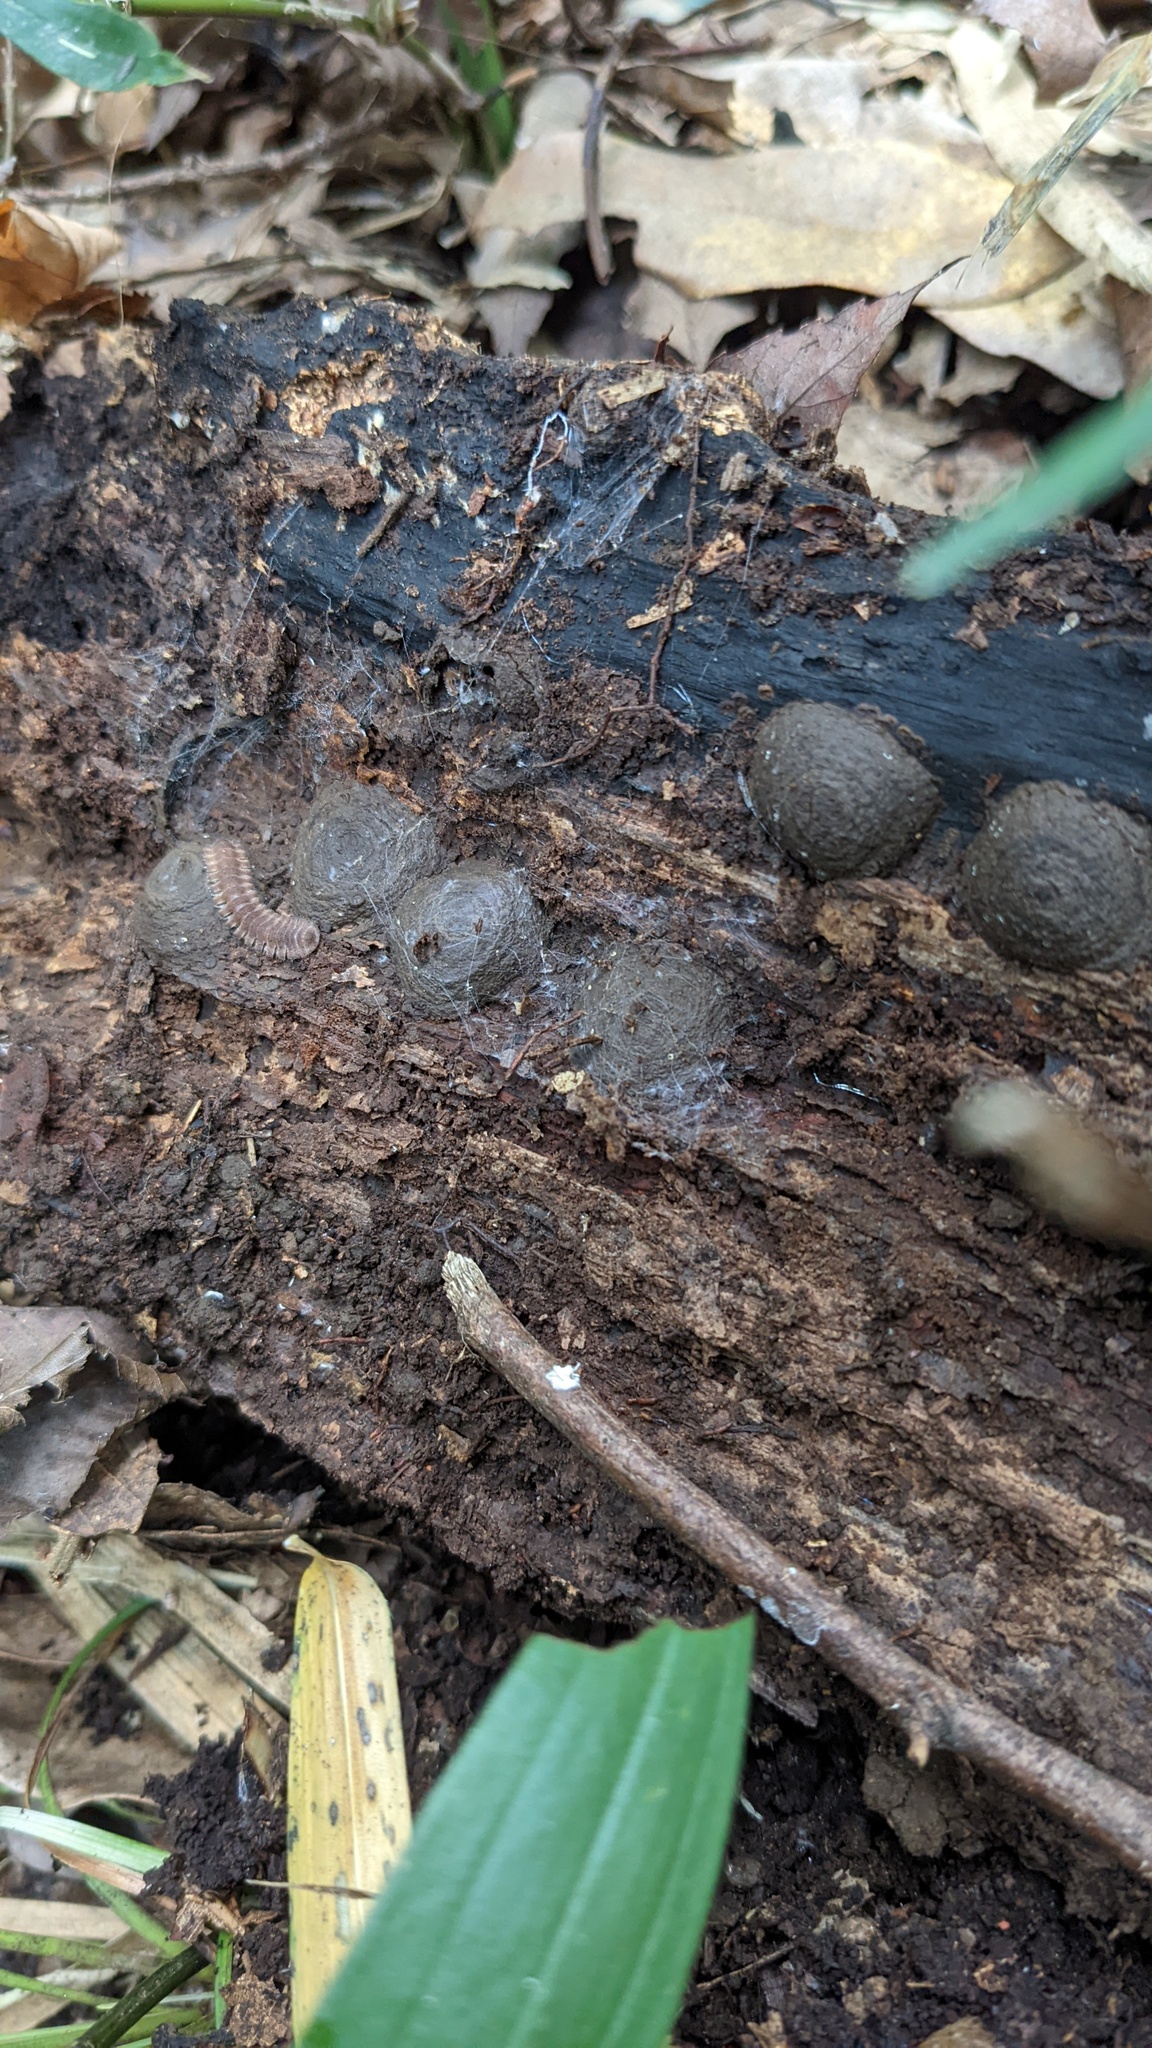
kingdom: Animalia
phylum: Arthropoda
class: Diplopoda
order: Polydesmida
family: Cryptodesmidae
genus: Niponia
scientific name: Niponia nodulosa
